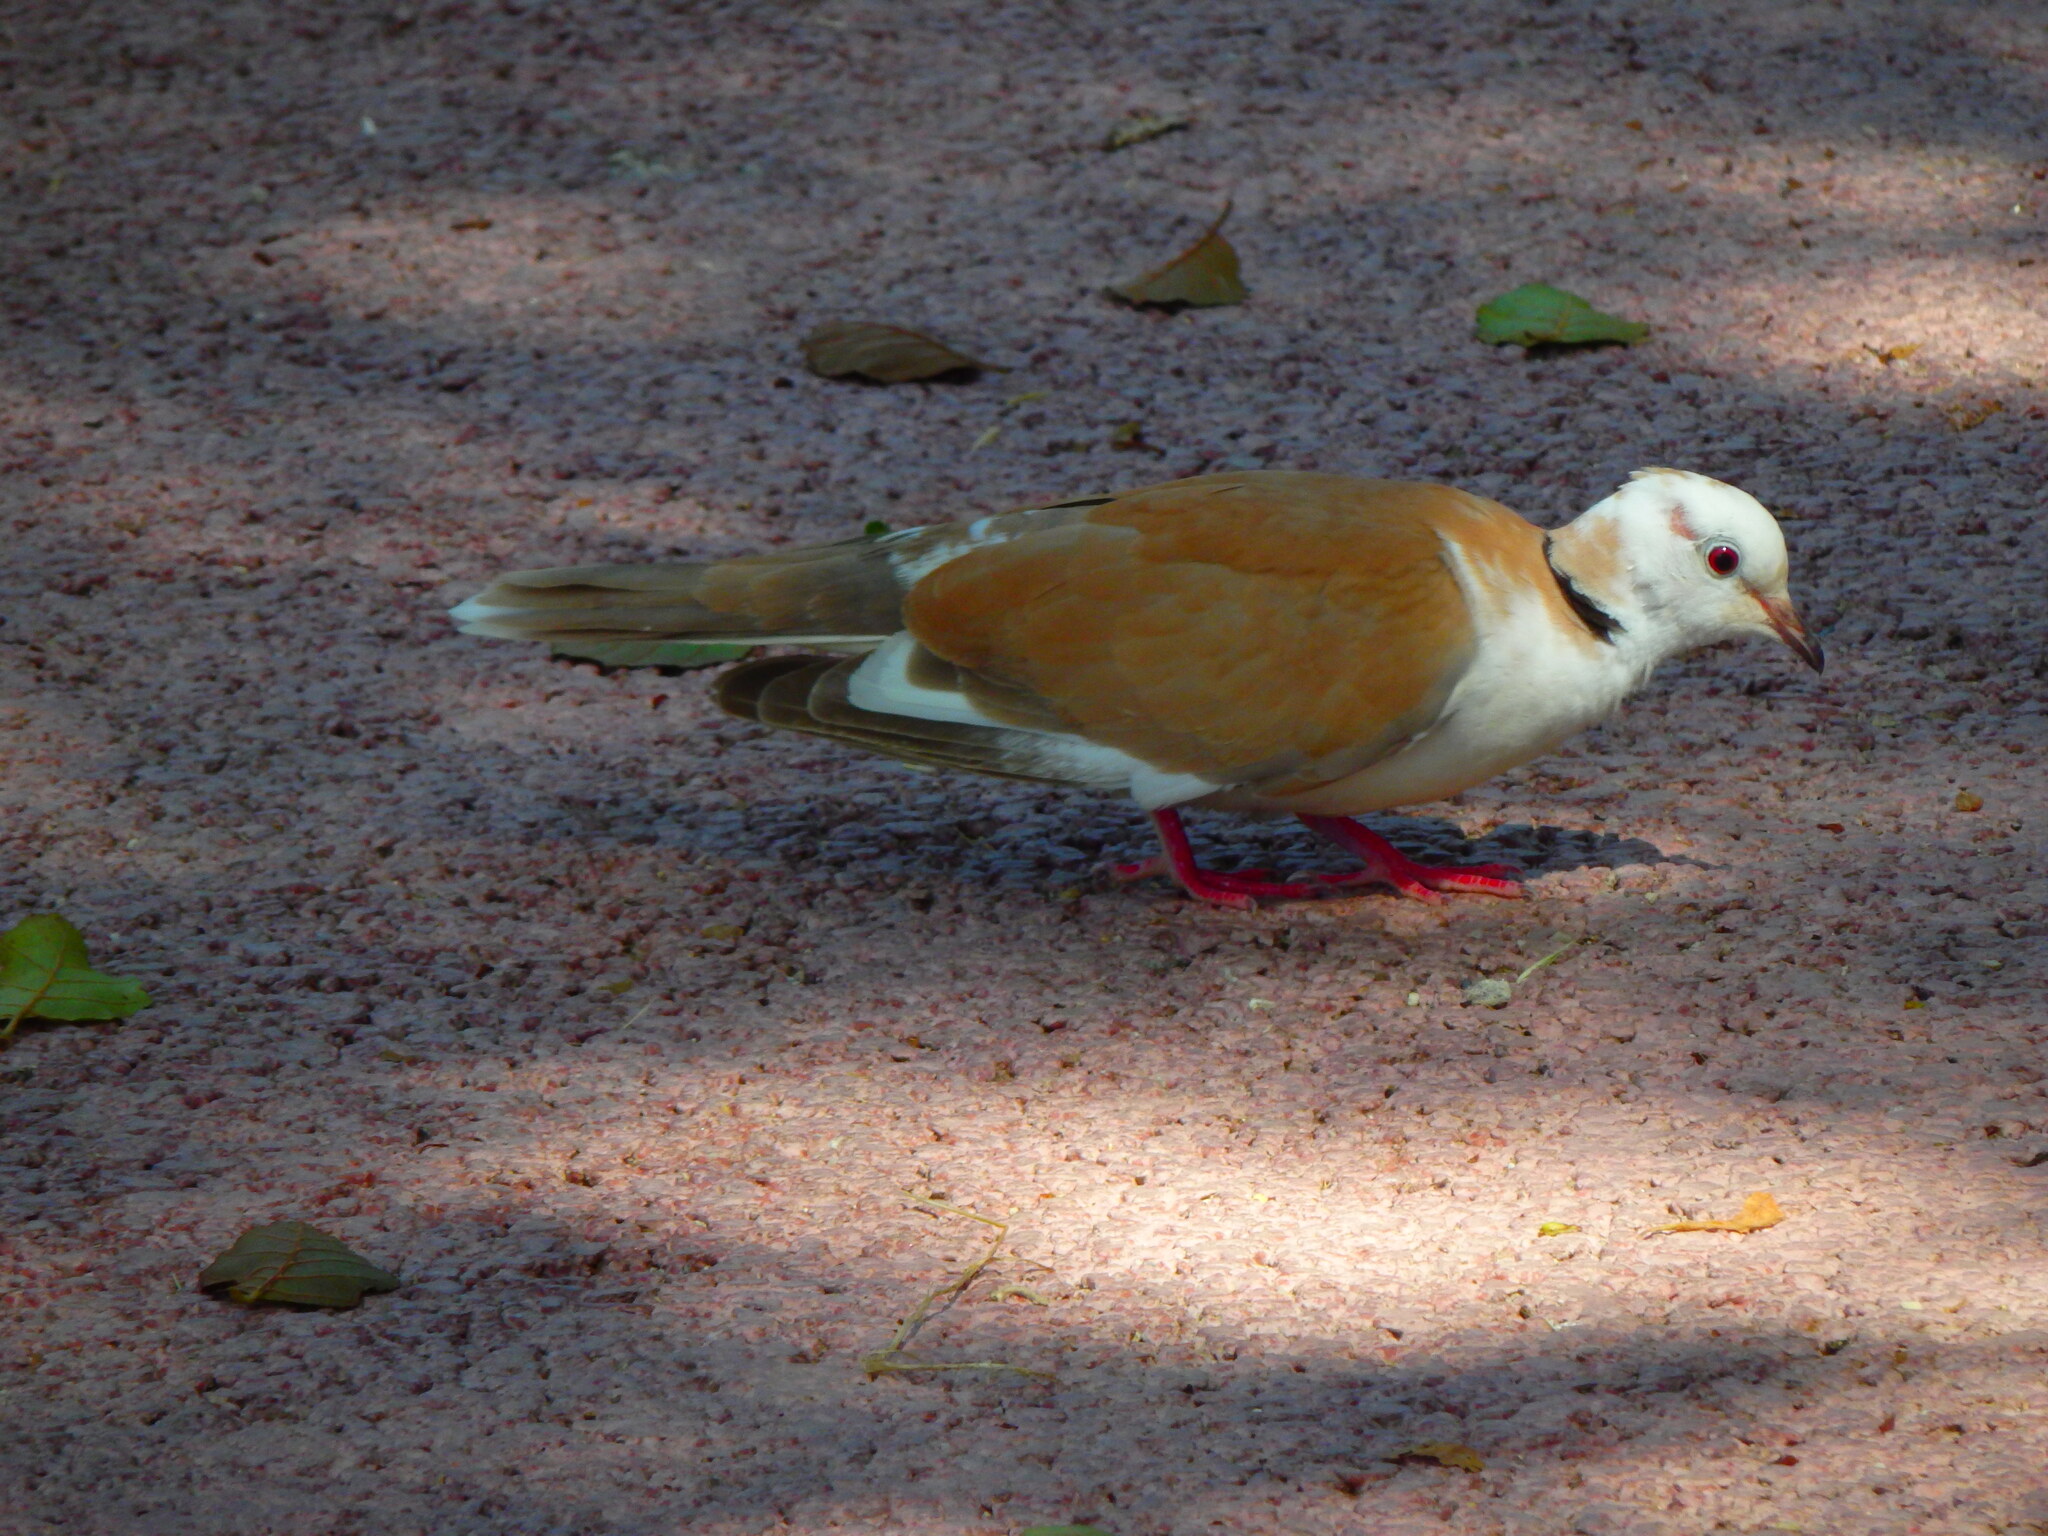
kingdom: Animalia
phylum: Chordata
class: Aves
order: Columbiformes
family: Columbidae
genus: Streptopelia
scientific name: Streptopelia roseogrisea
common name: African collared dove
